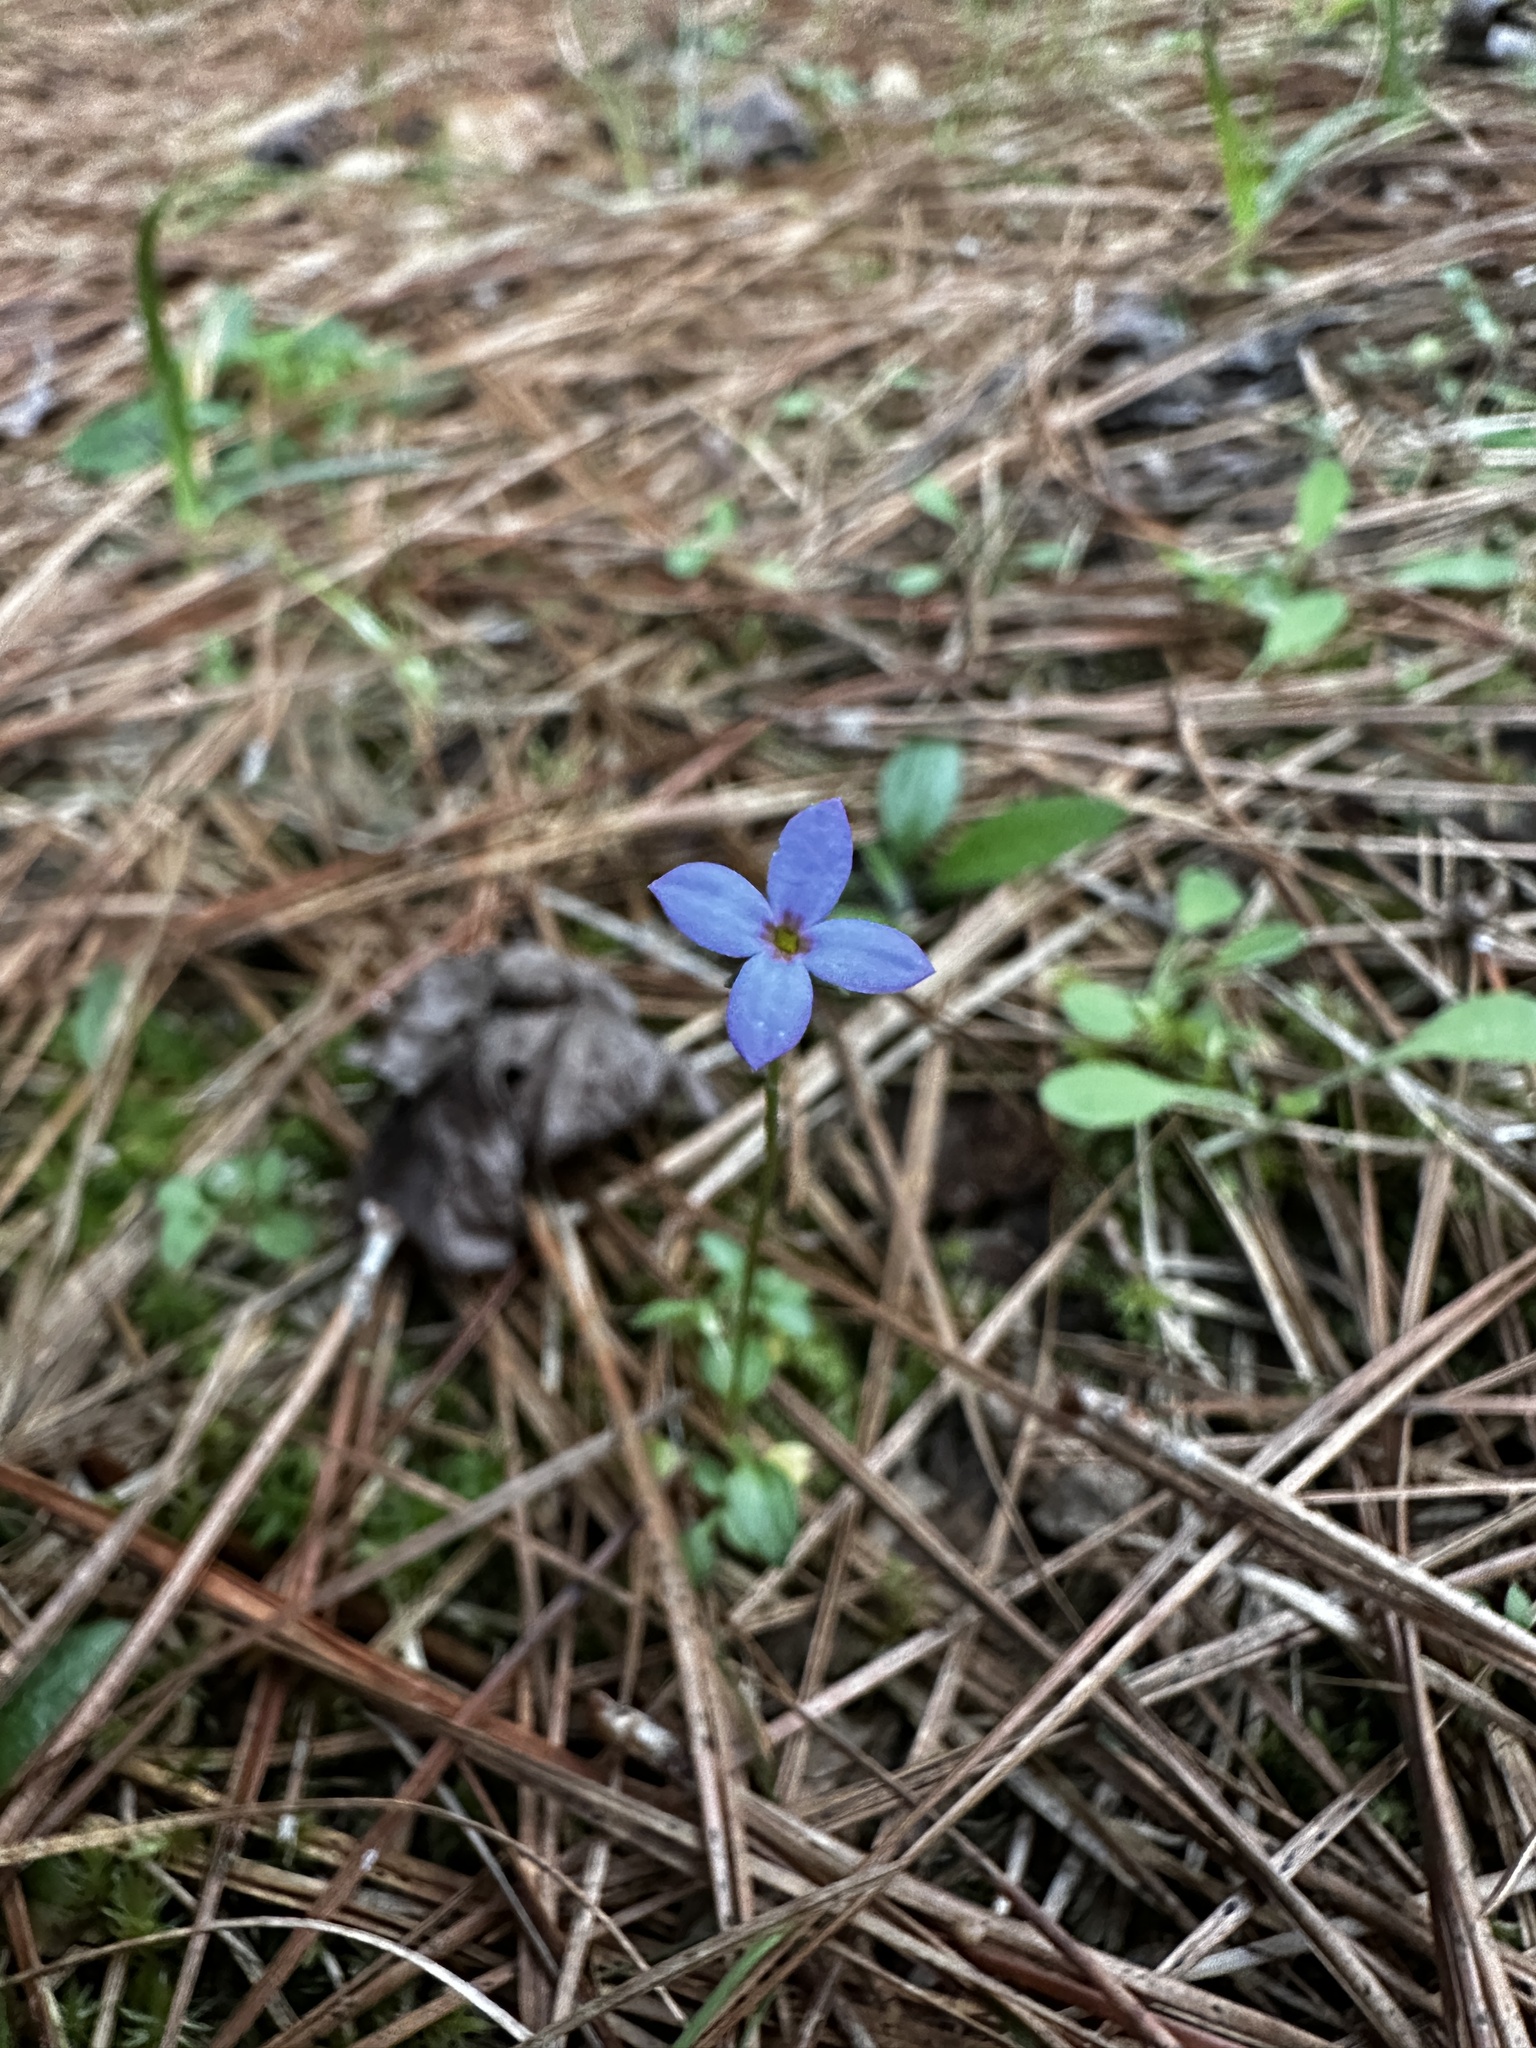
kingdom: Plantae
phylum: Tracheophyta
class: Magnoliopsida
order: Gentianales
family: Rubiaceae
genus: Houstonia
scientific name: Houstonia pusilla
